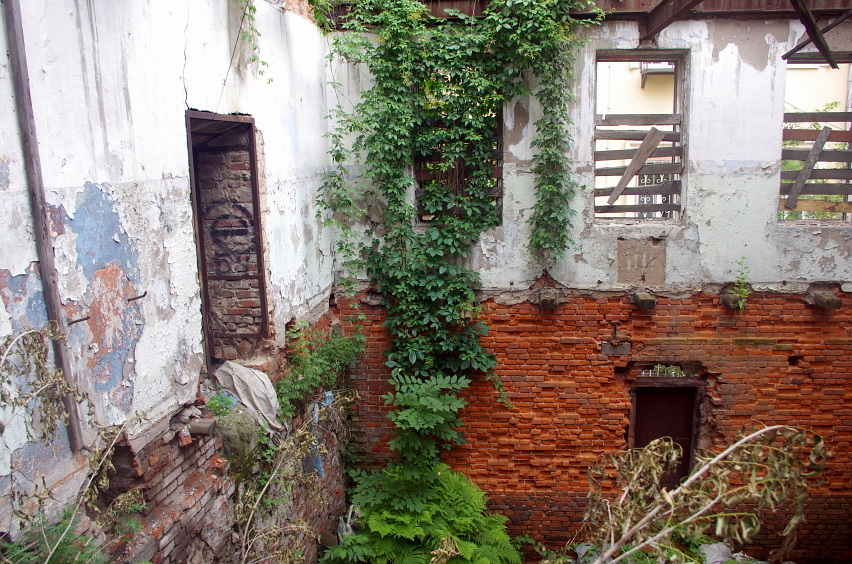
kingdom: Plantae
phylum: Tracheophyta
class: Polypodiopsida
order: Polypodiales
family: Athyriaceae
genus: Athyrium
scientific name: Athyrium filix-femina
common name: Lady fern
